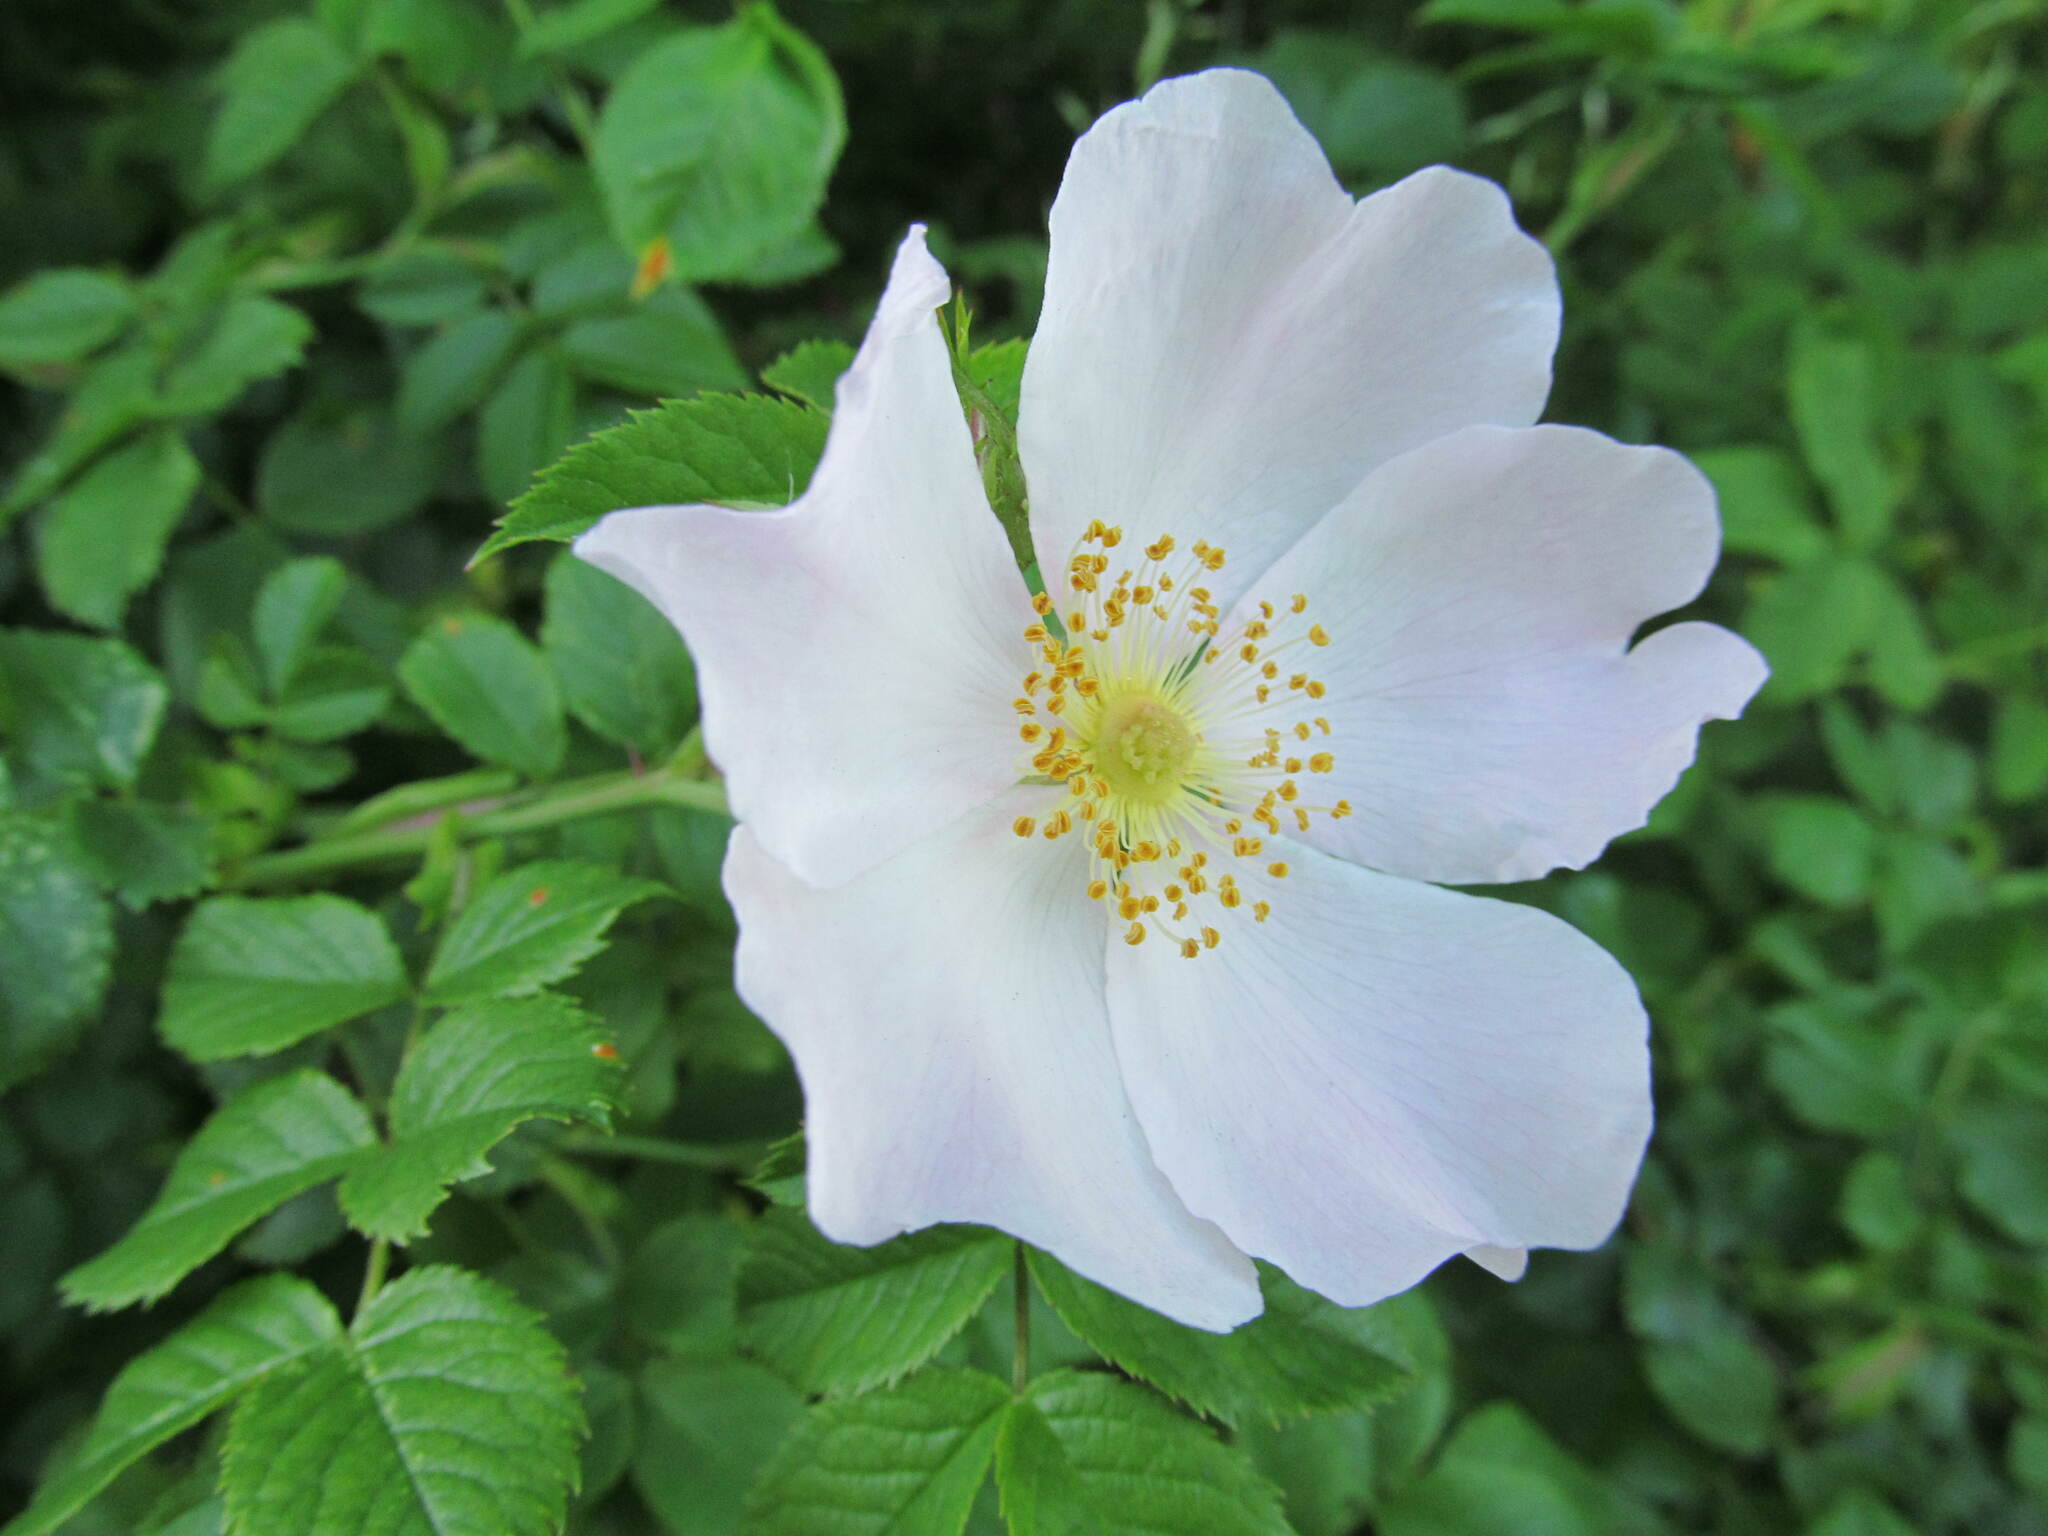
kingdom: Plantae
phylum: Tracheophyta
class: Magnoliopsida
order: Rosales
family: Rosaceae
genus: Rosa
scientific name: Rosa canina
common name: Dog rose
